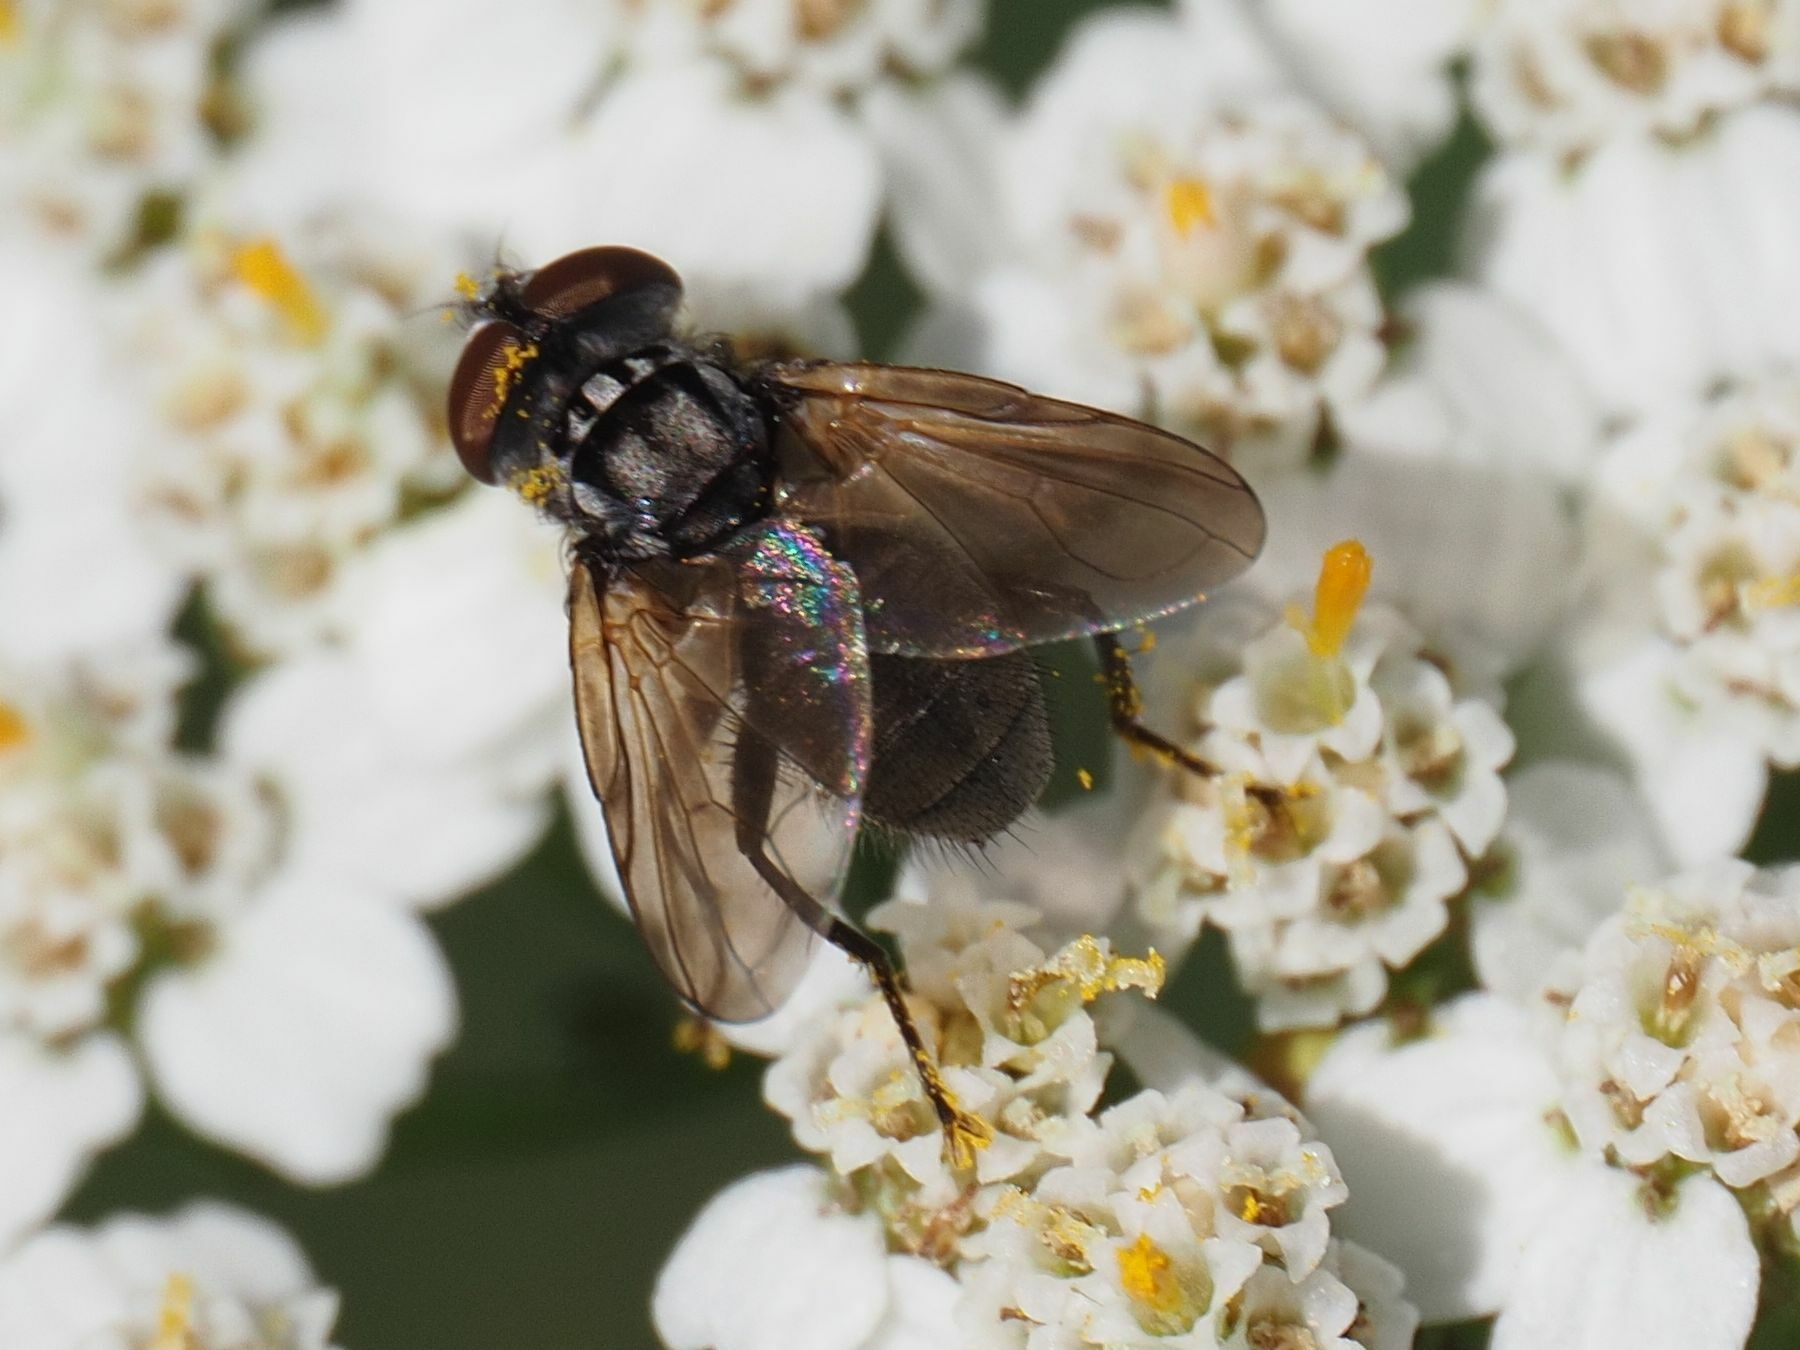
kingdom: Animalia
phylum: Arthropoda
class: Insecta
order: Diptera
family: Tachinidae
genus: Phasia
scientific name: Phasia obesa
